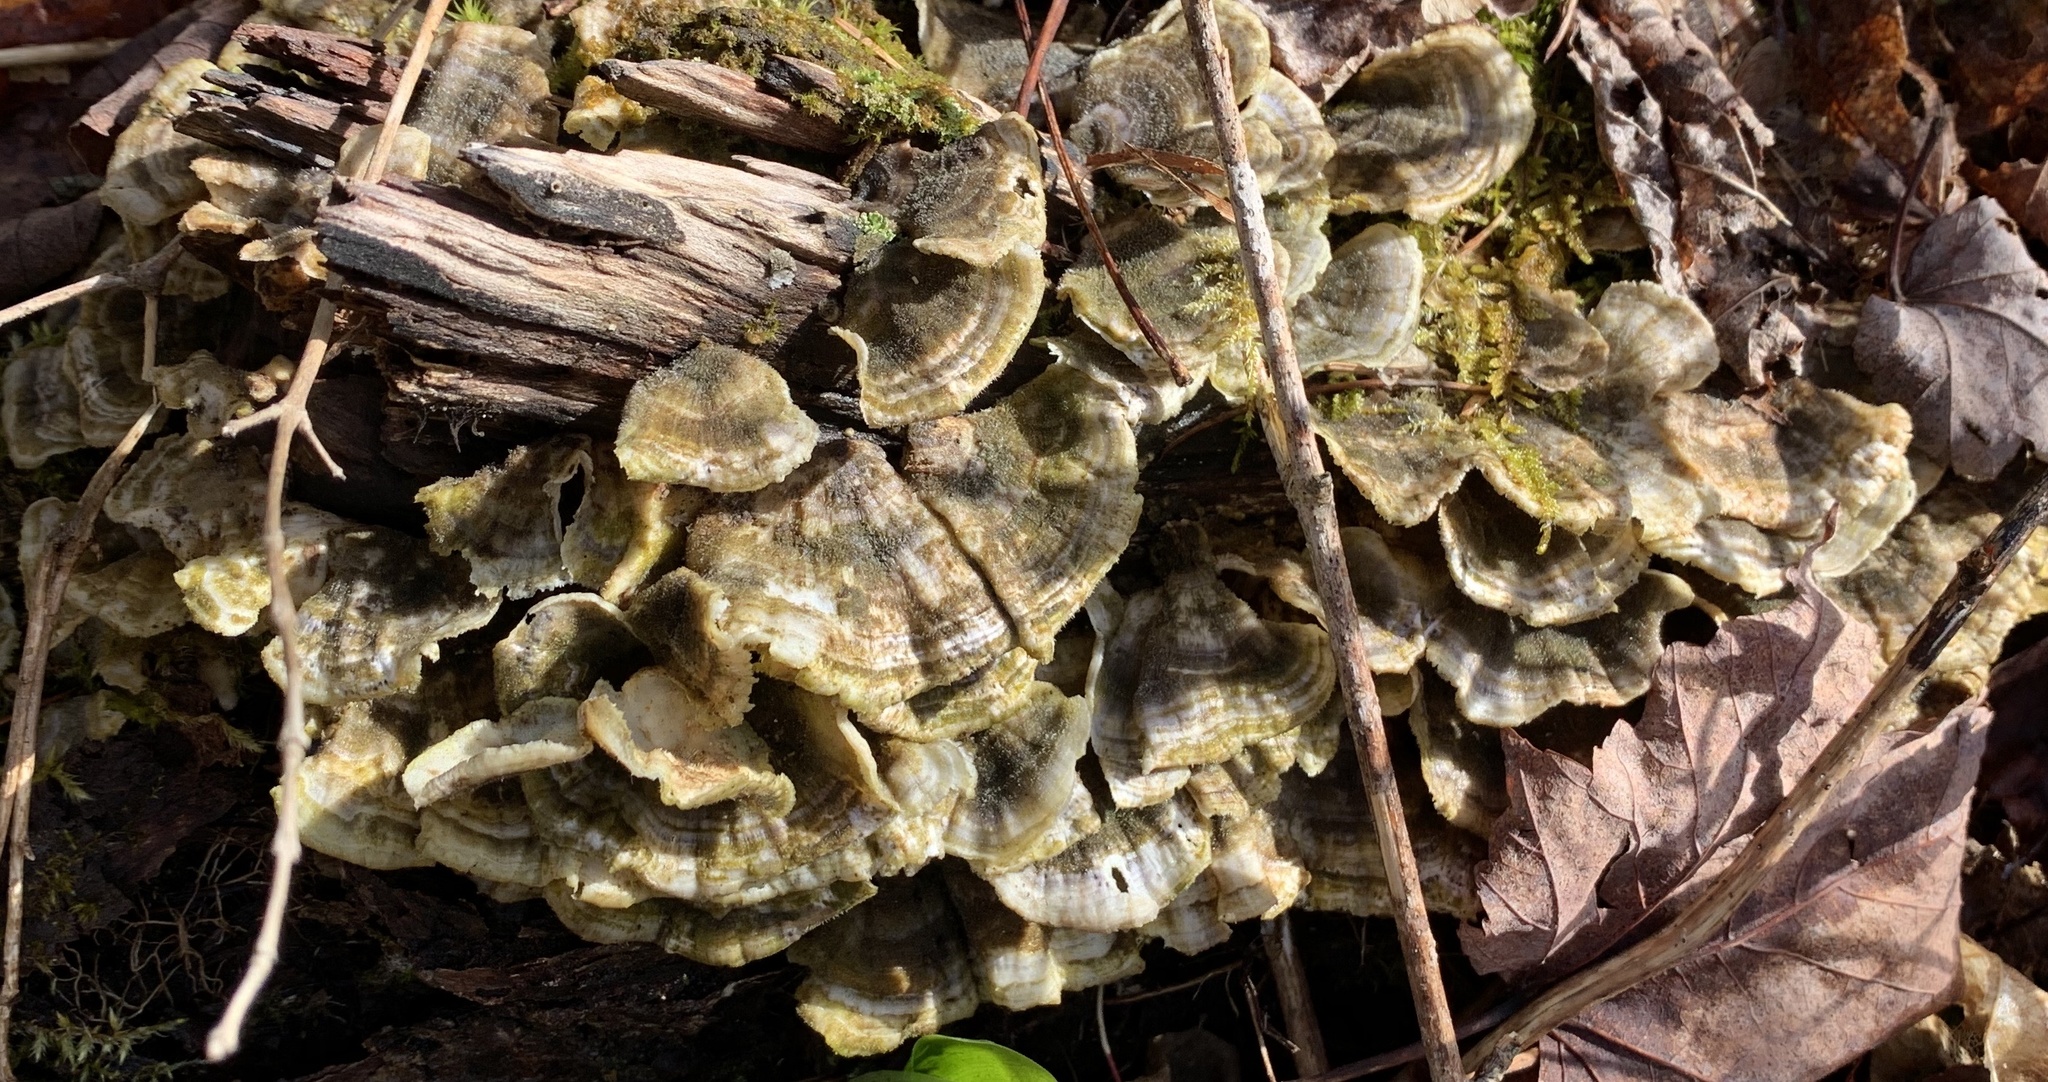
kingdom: Fungi
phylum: Basidiomycota
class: Agaricomycetes
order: Polyporales
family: Polyporaceae
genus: Trametes
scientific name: Trametes versicolor
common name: Turkeytail
